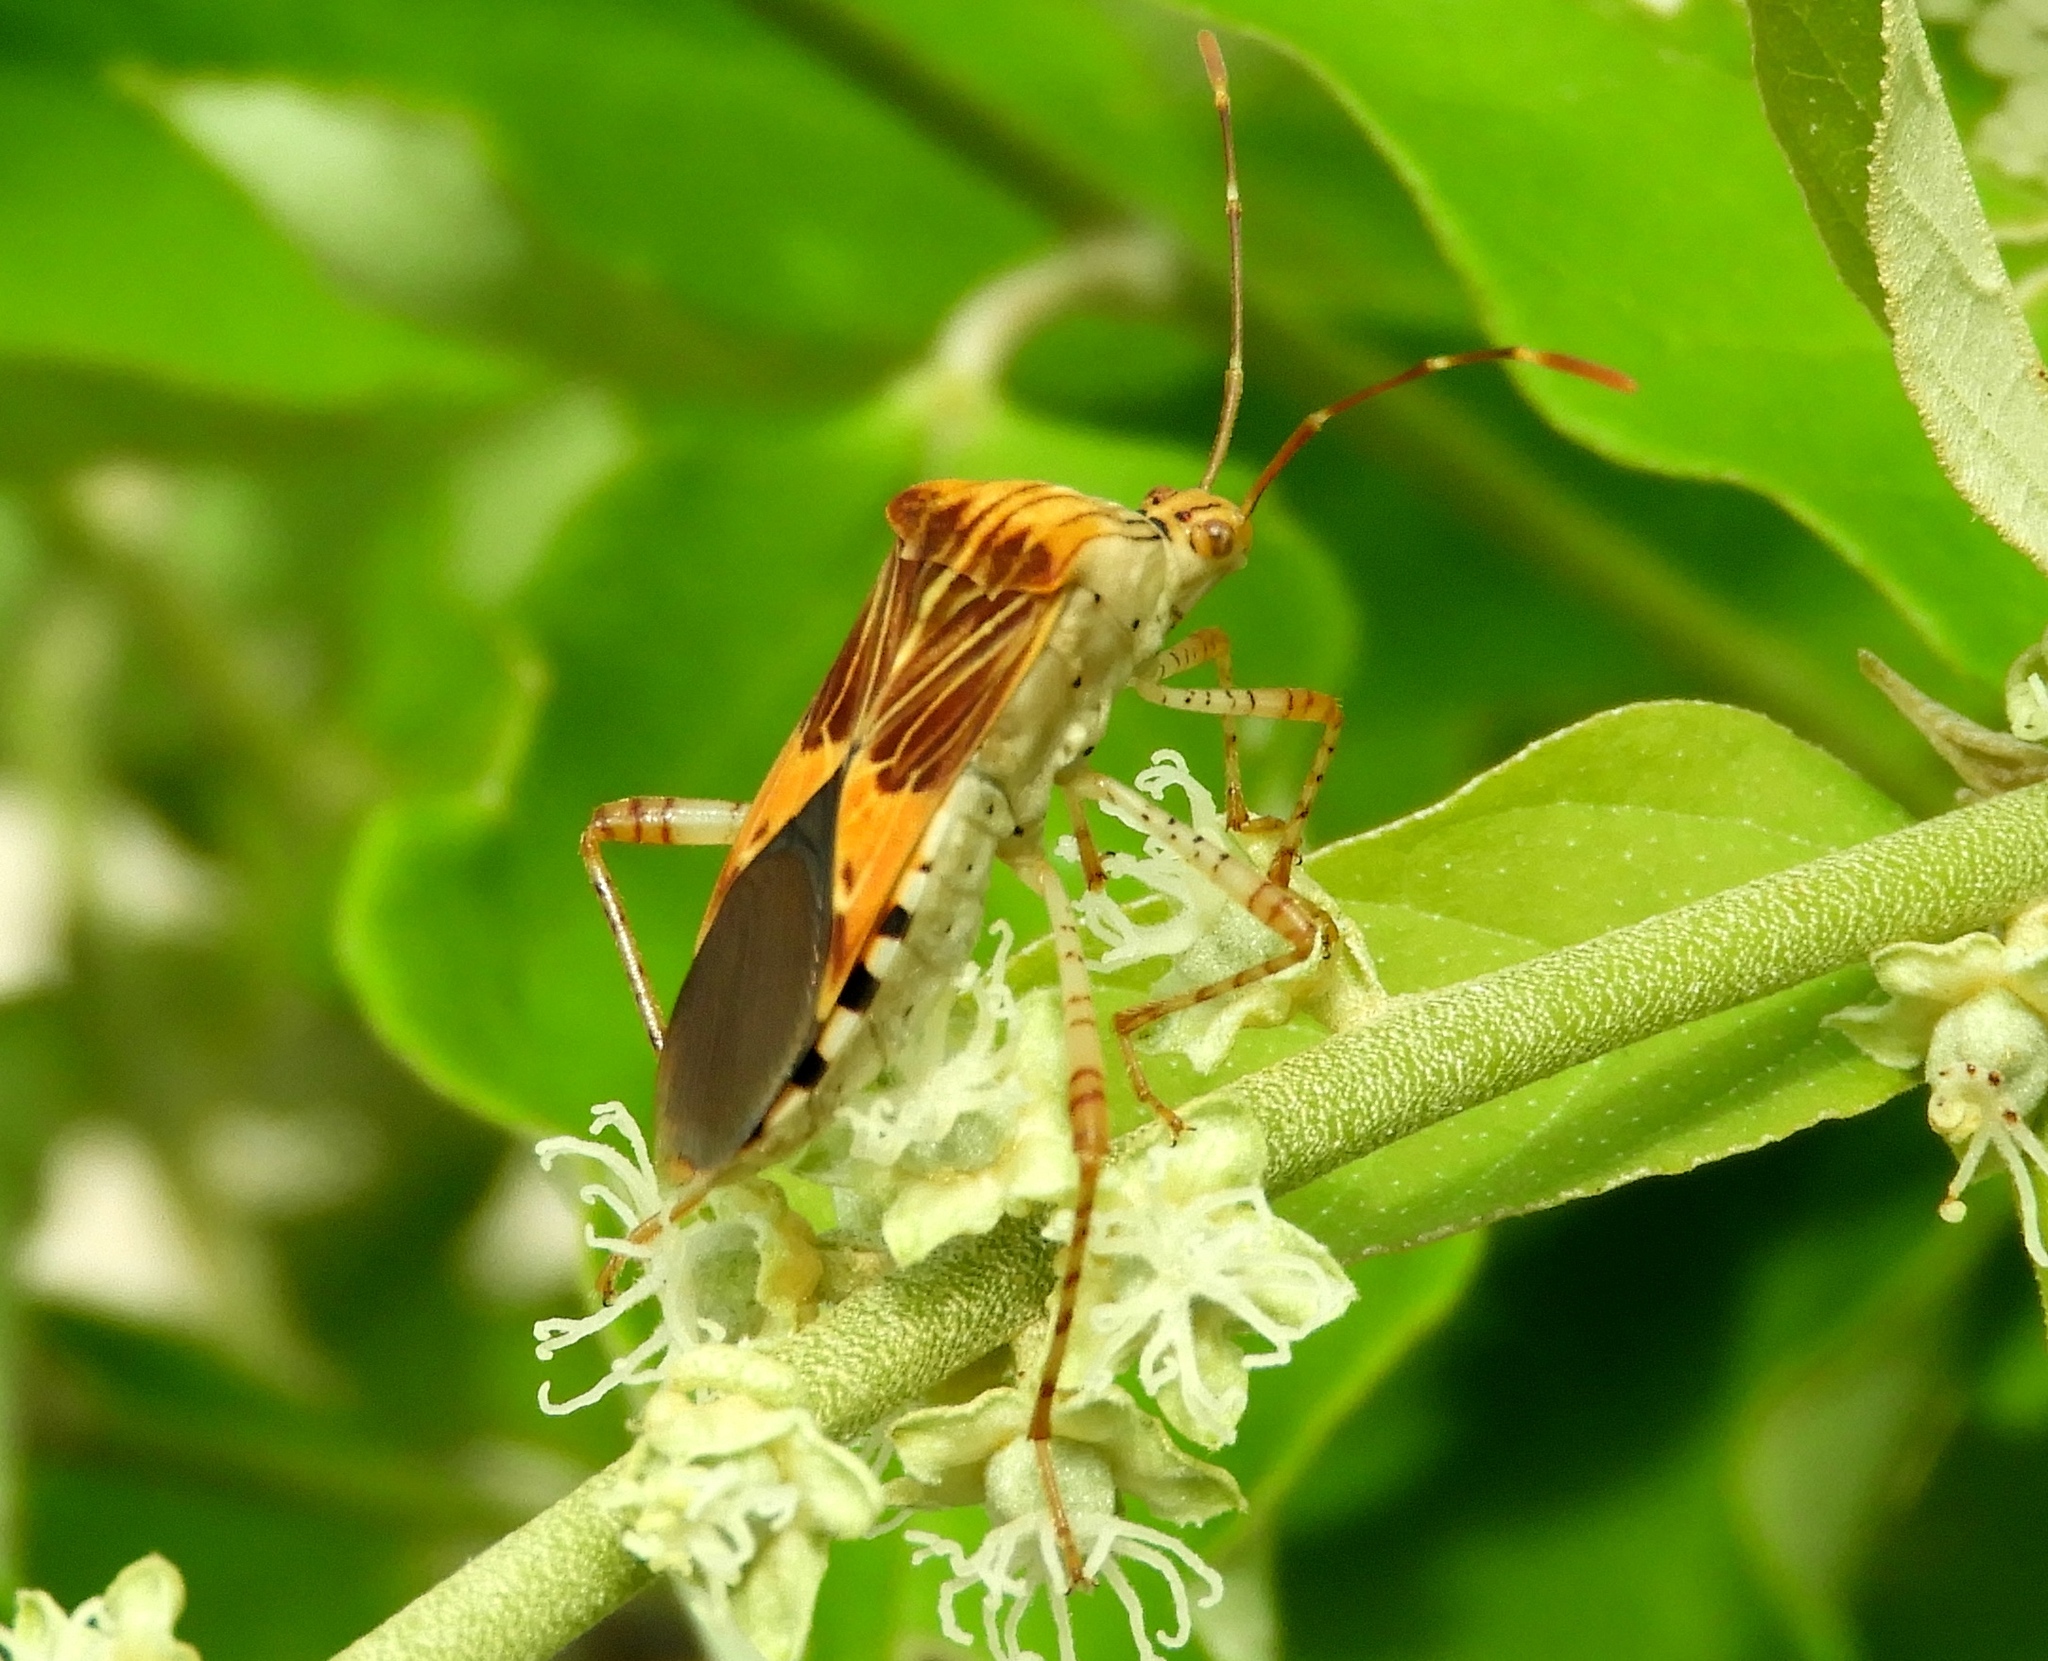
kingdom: Animalia
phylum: Arthropoda
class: Insecta
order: Hemiptera
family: Coreidae
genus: Hypselonotus
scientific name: Hypselonotus punctiventris
